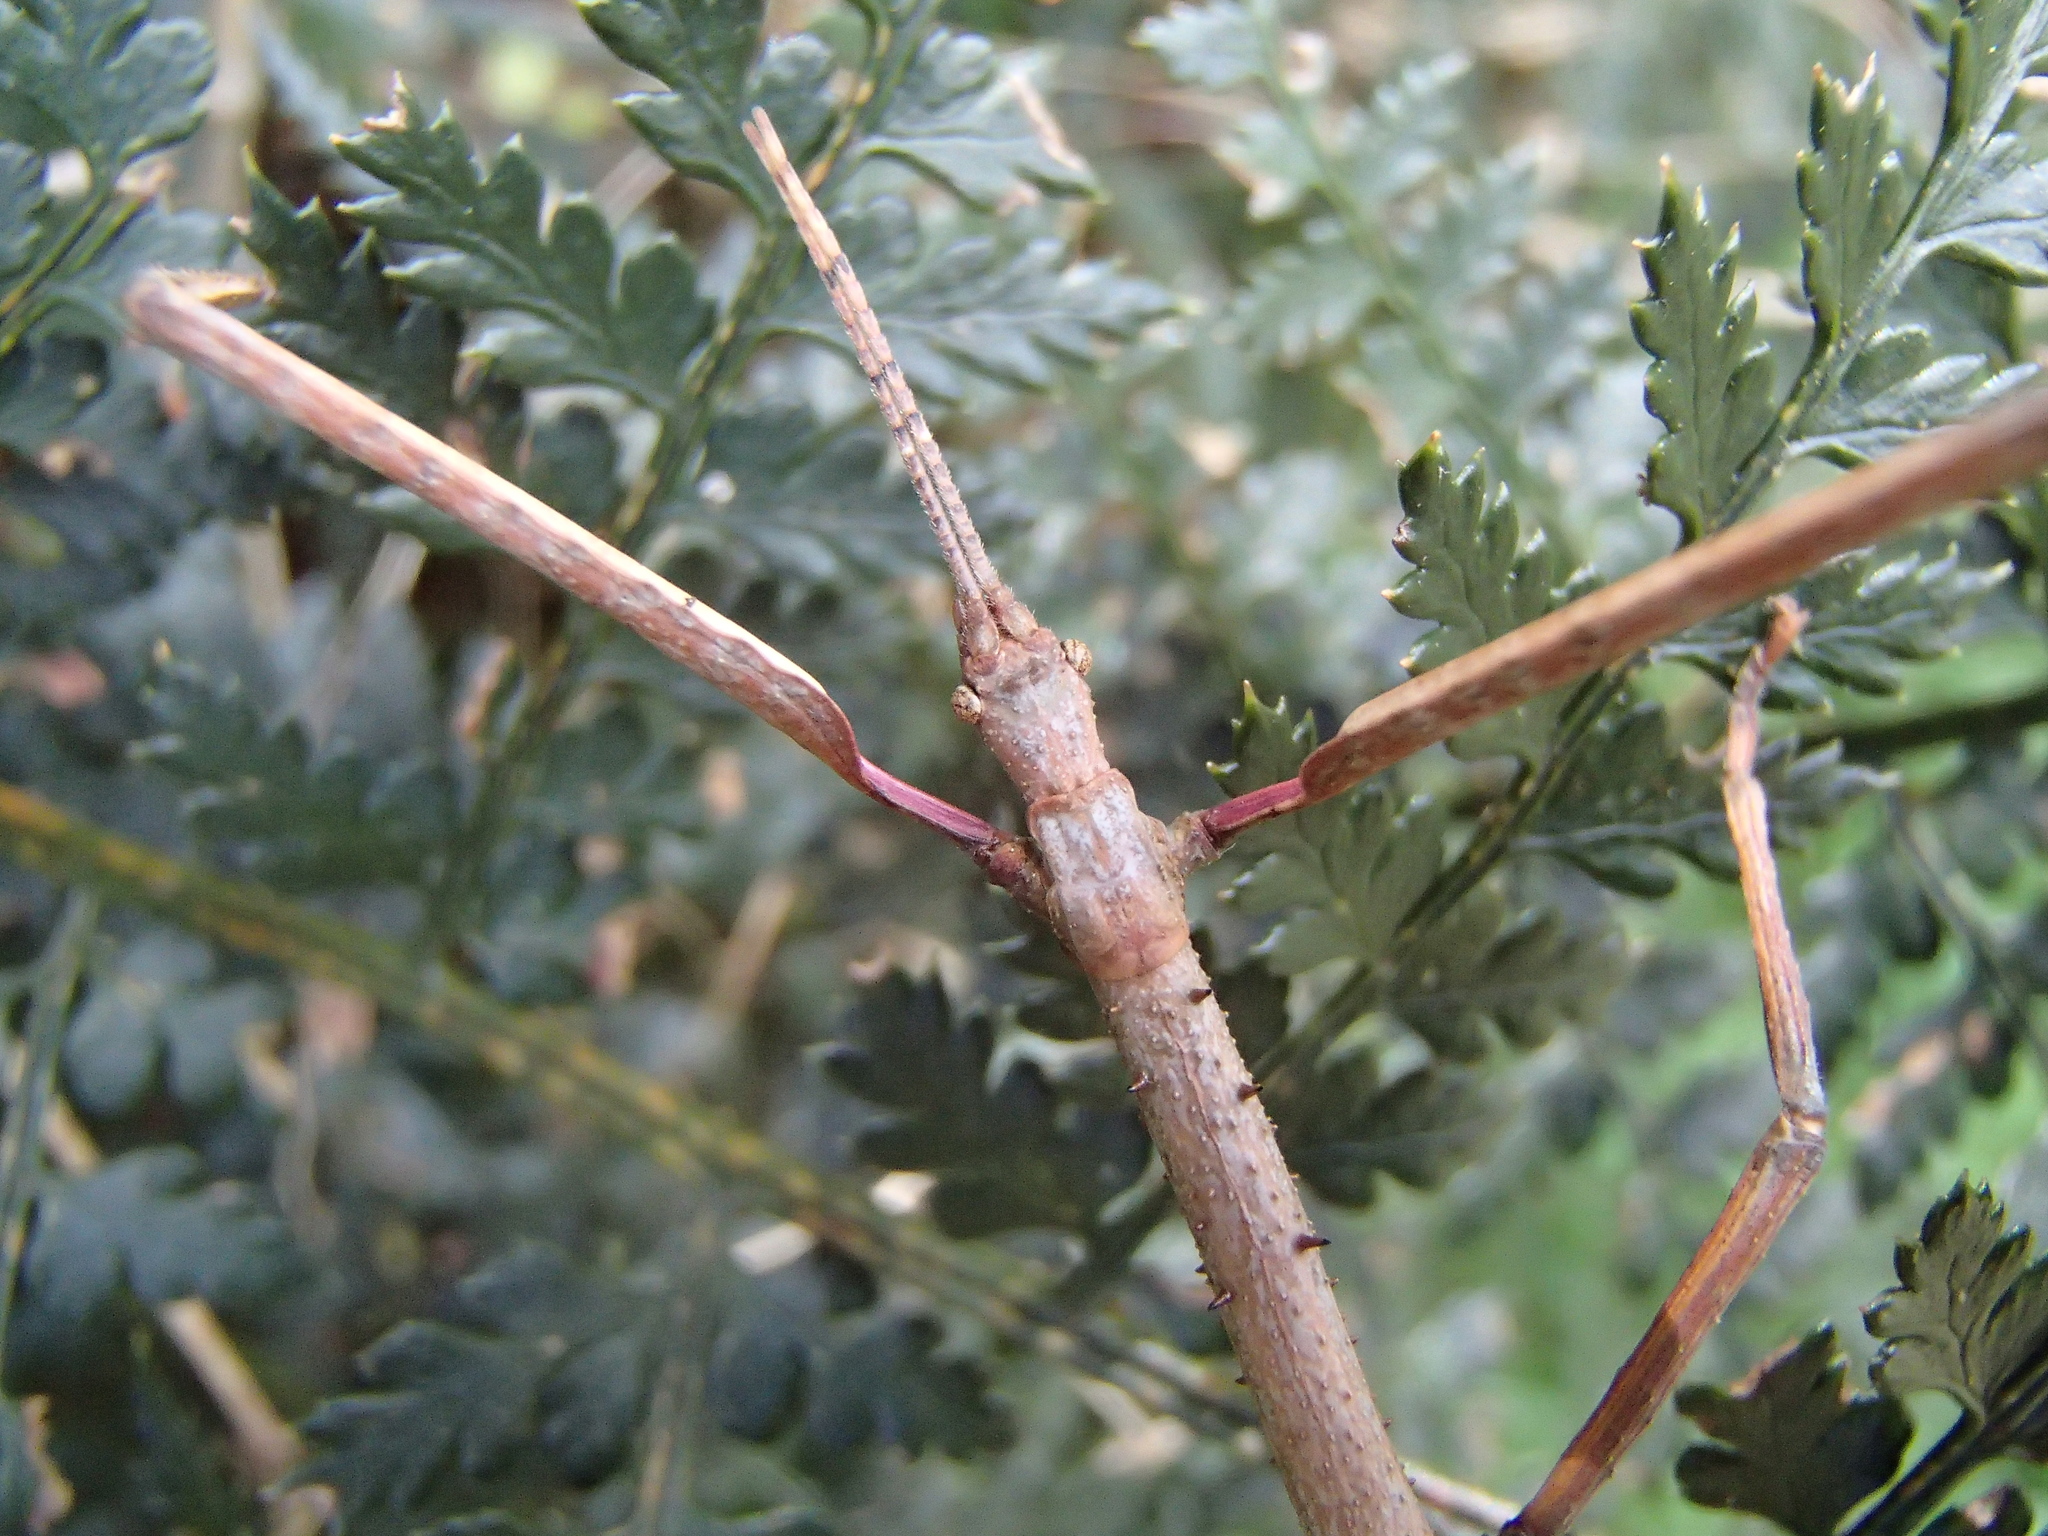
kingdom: Animalia
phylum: Arthropoda
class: Insecta
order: Phasmida
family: Phasmatidae
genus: Argosarchus
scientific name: Argosarchus horridus
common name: Bristly stick insect
